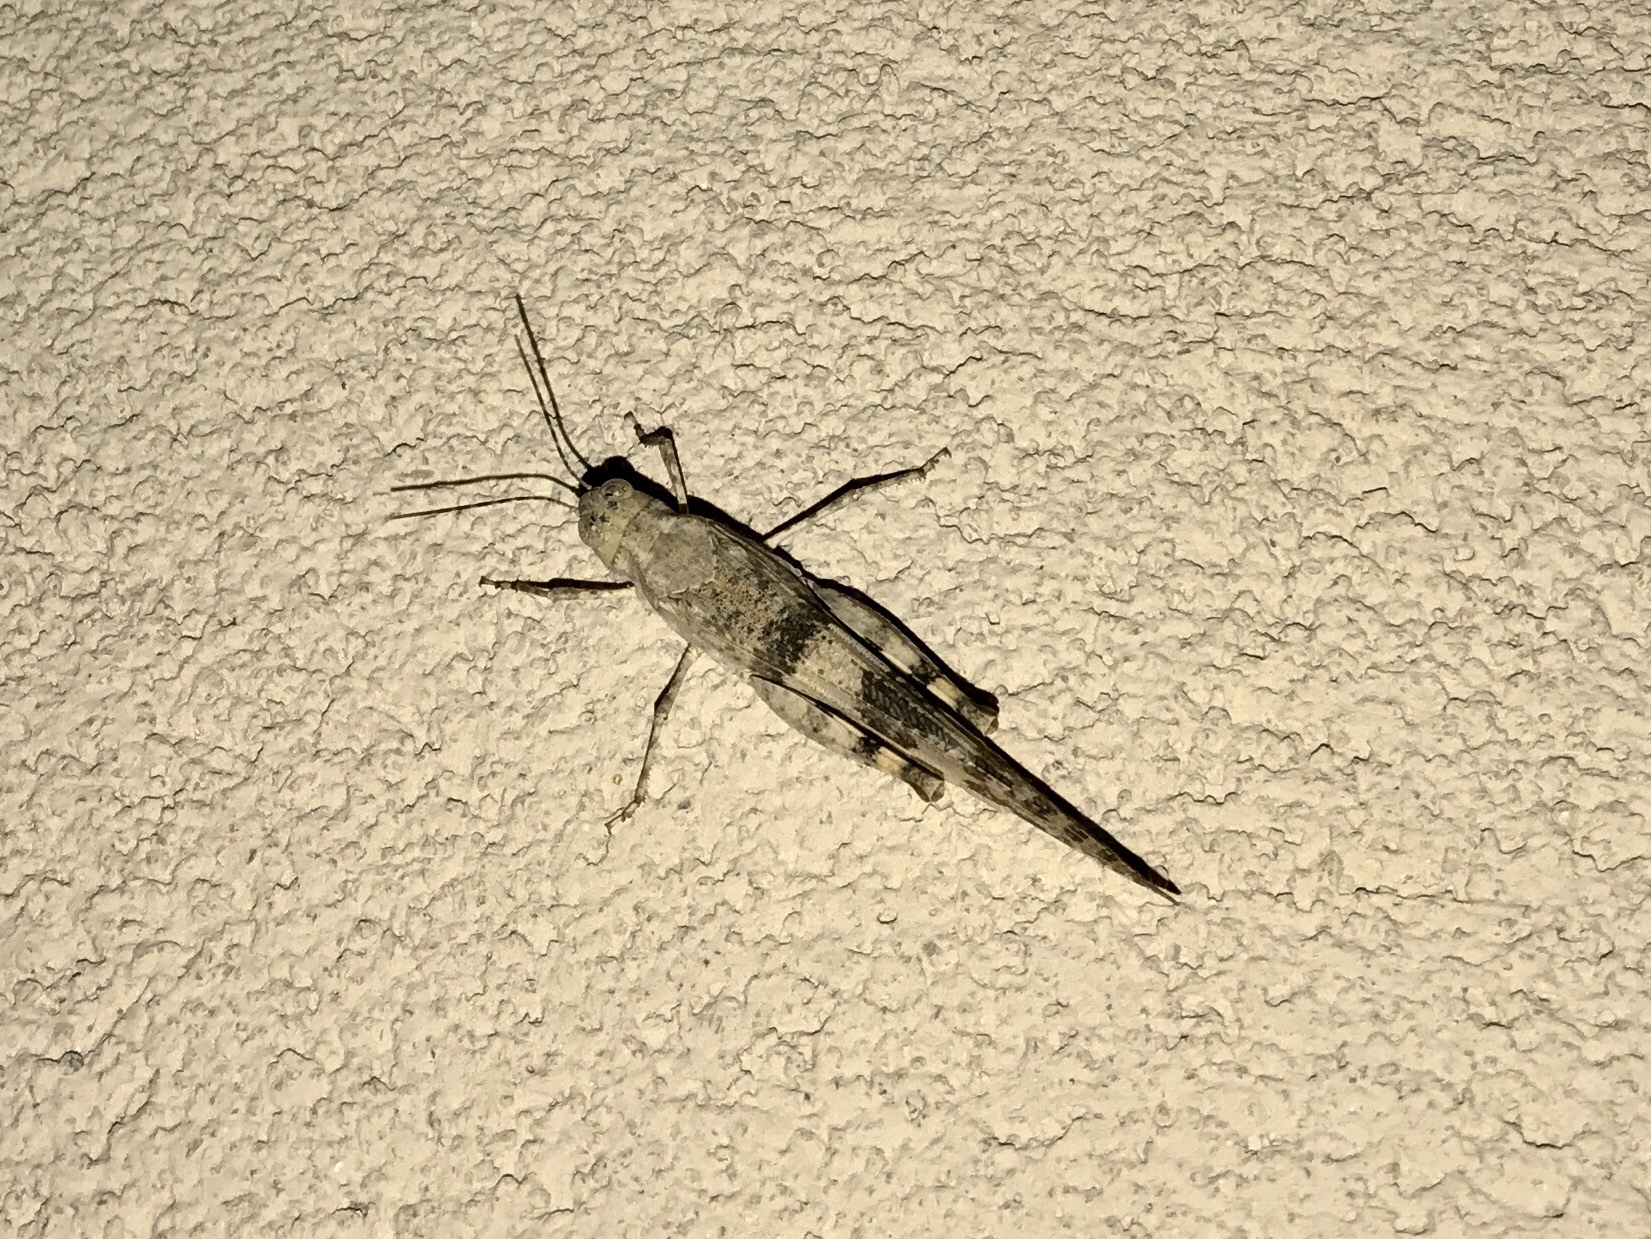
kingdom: Animalia
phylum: Arthropoda
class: Insecta
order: Orthoptera
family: Acrididae
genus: Trimerotropis
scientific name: Trimerotropis pallidipennis
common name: Pallid-winged grasshopper
